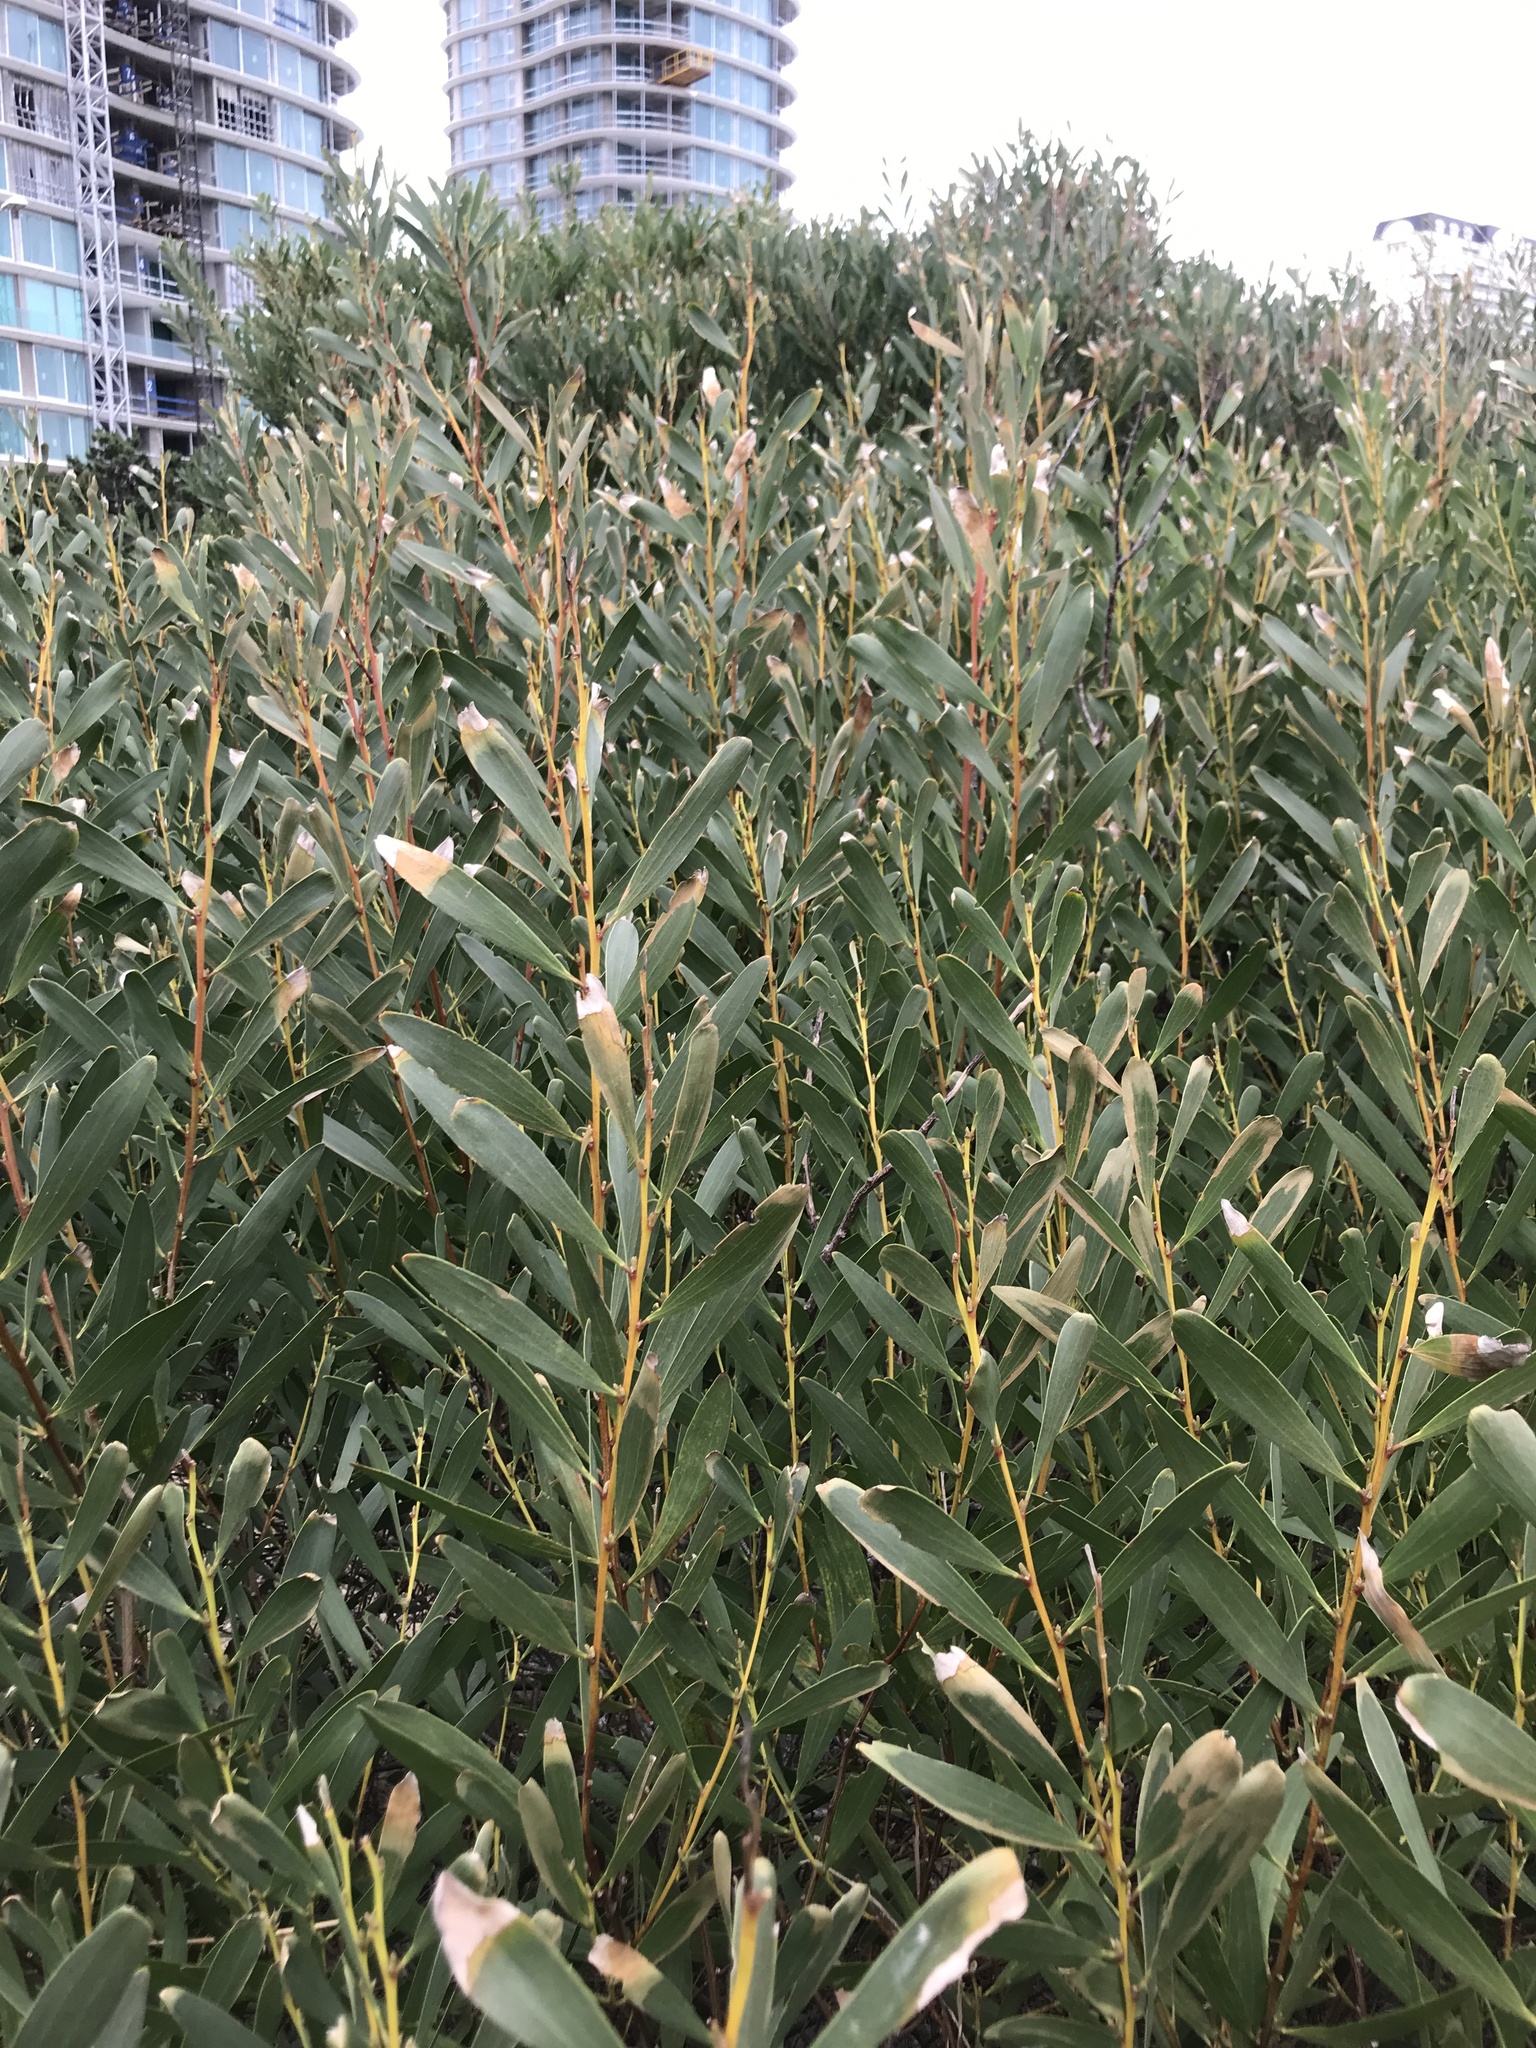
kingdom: Plantae
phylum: Tracheophyta
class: Magnoliopsida
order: Fabales
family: Fabaceae
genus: Acacia
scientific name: Acacia longifolia
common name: Sydney golden wattle
